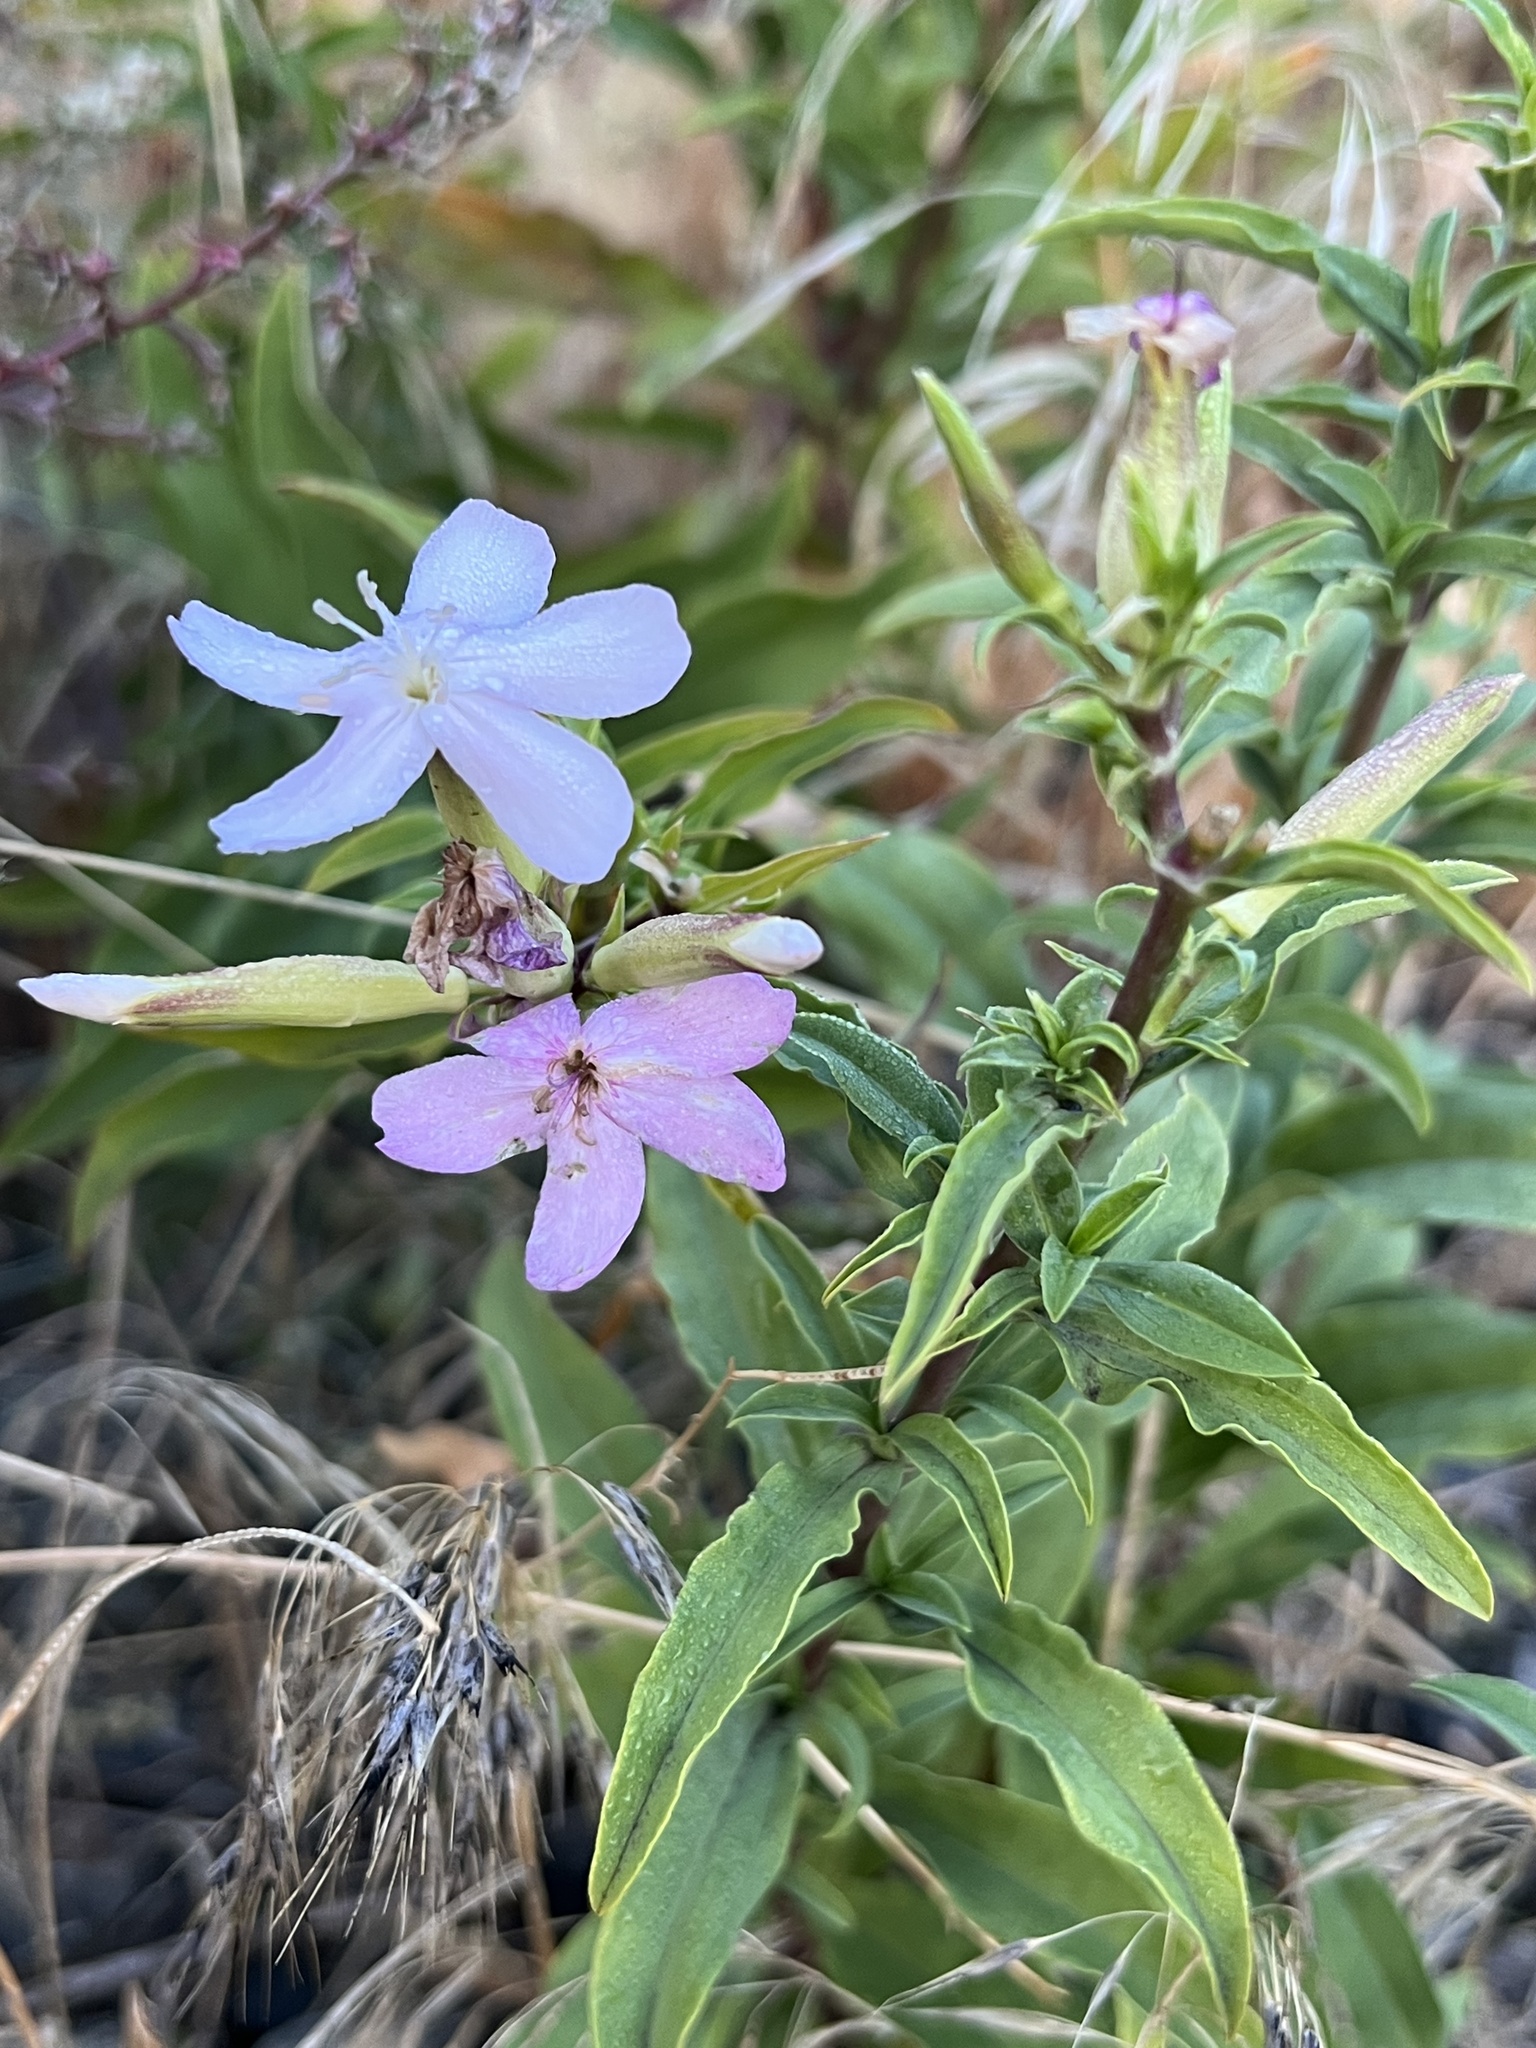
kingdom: Plantae
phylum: Tracheophyta
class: Magnoliopsida
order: Caryophyllales
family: Caryophyllaceae
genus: Saponaria
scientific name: Saponaria officinalis
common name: Soapwort
